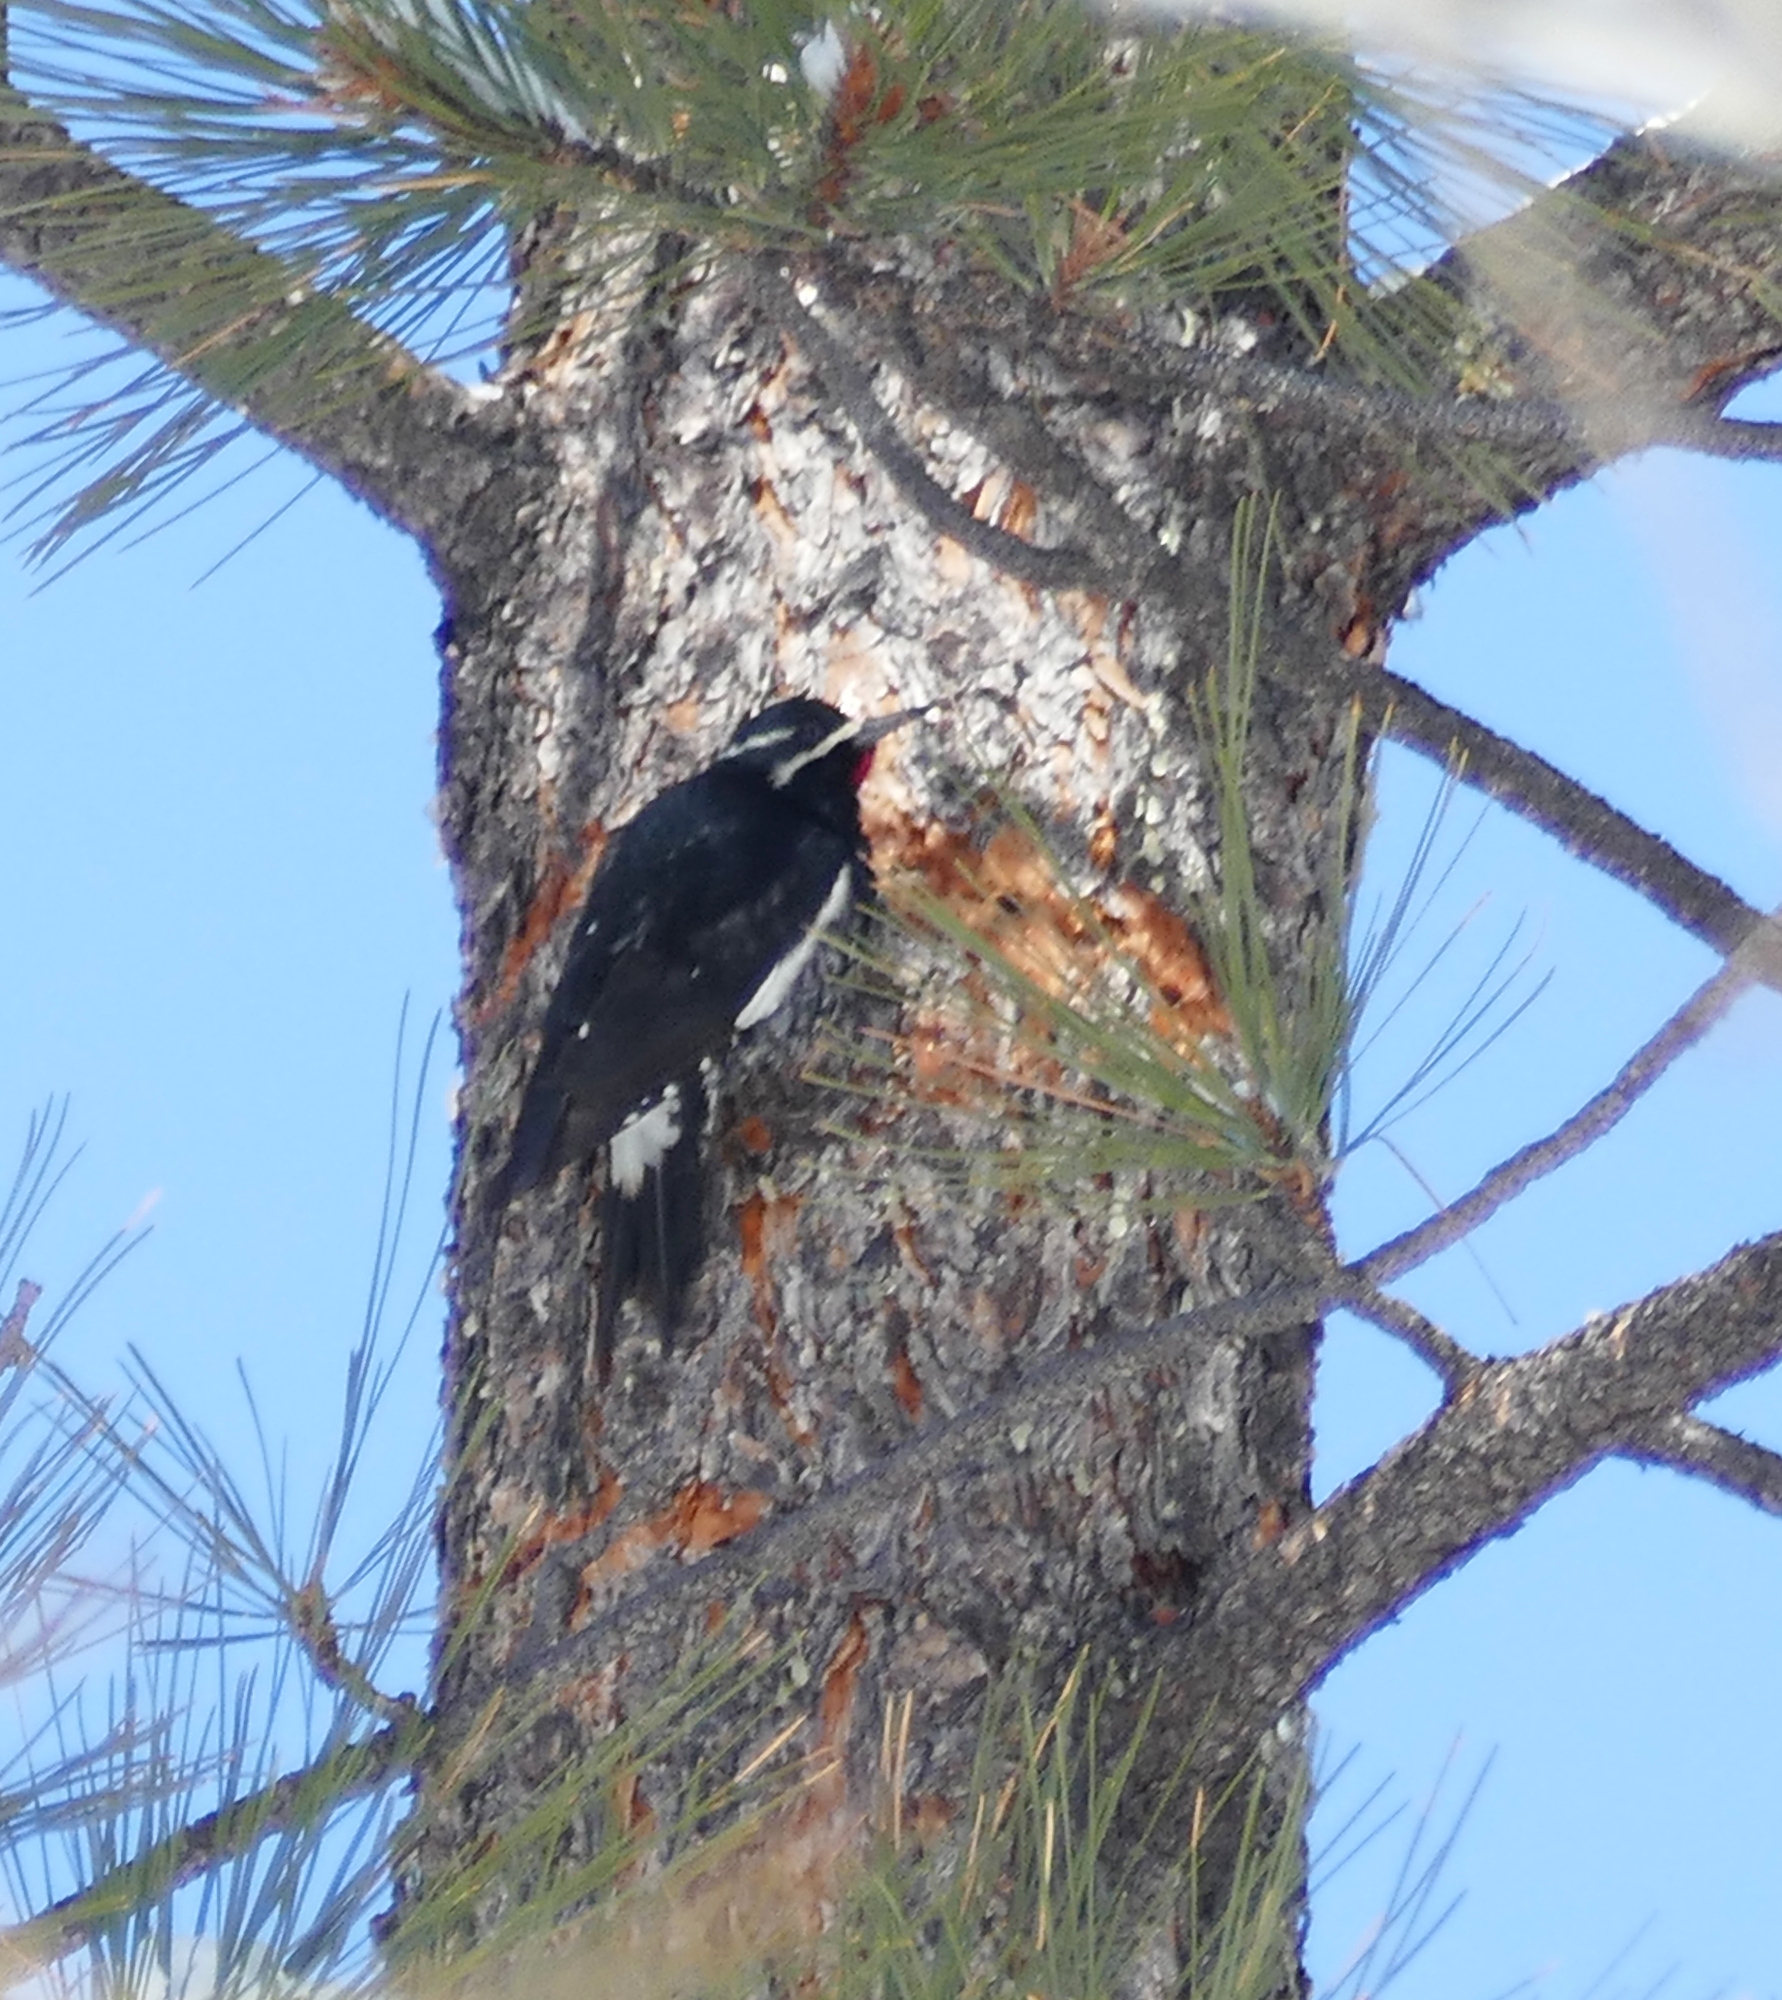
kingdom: Animalia
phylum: Chordata
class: Aves
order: Piciformes
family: Picidae
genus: Sphyrapicus
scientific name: Sphyrapicus thyroideus
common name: Williamson's sapsucker
